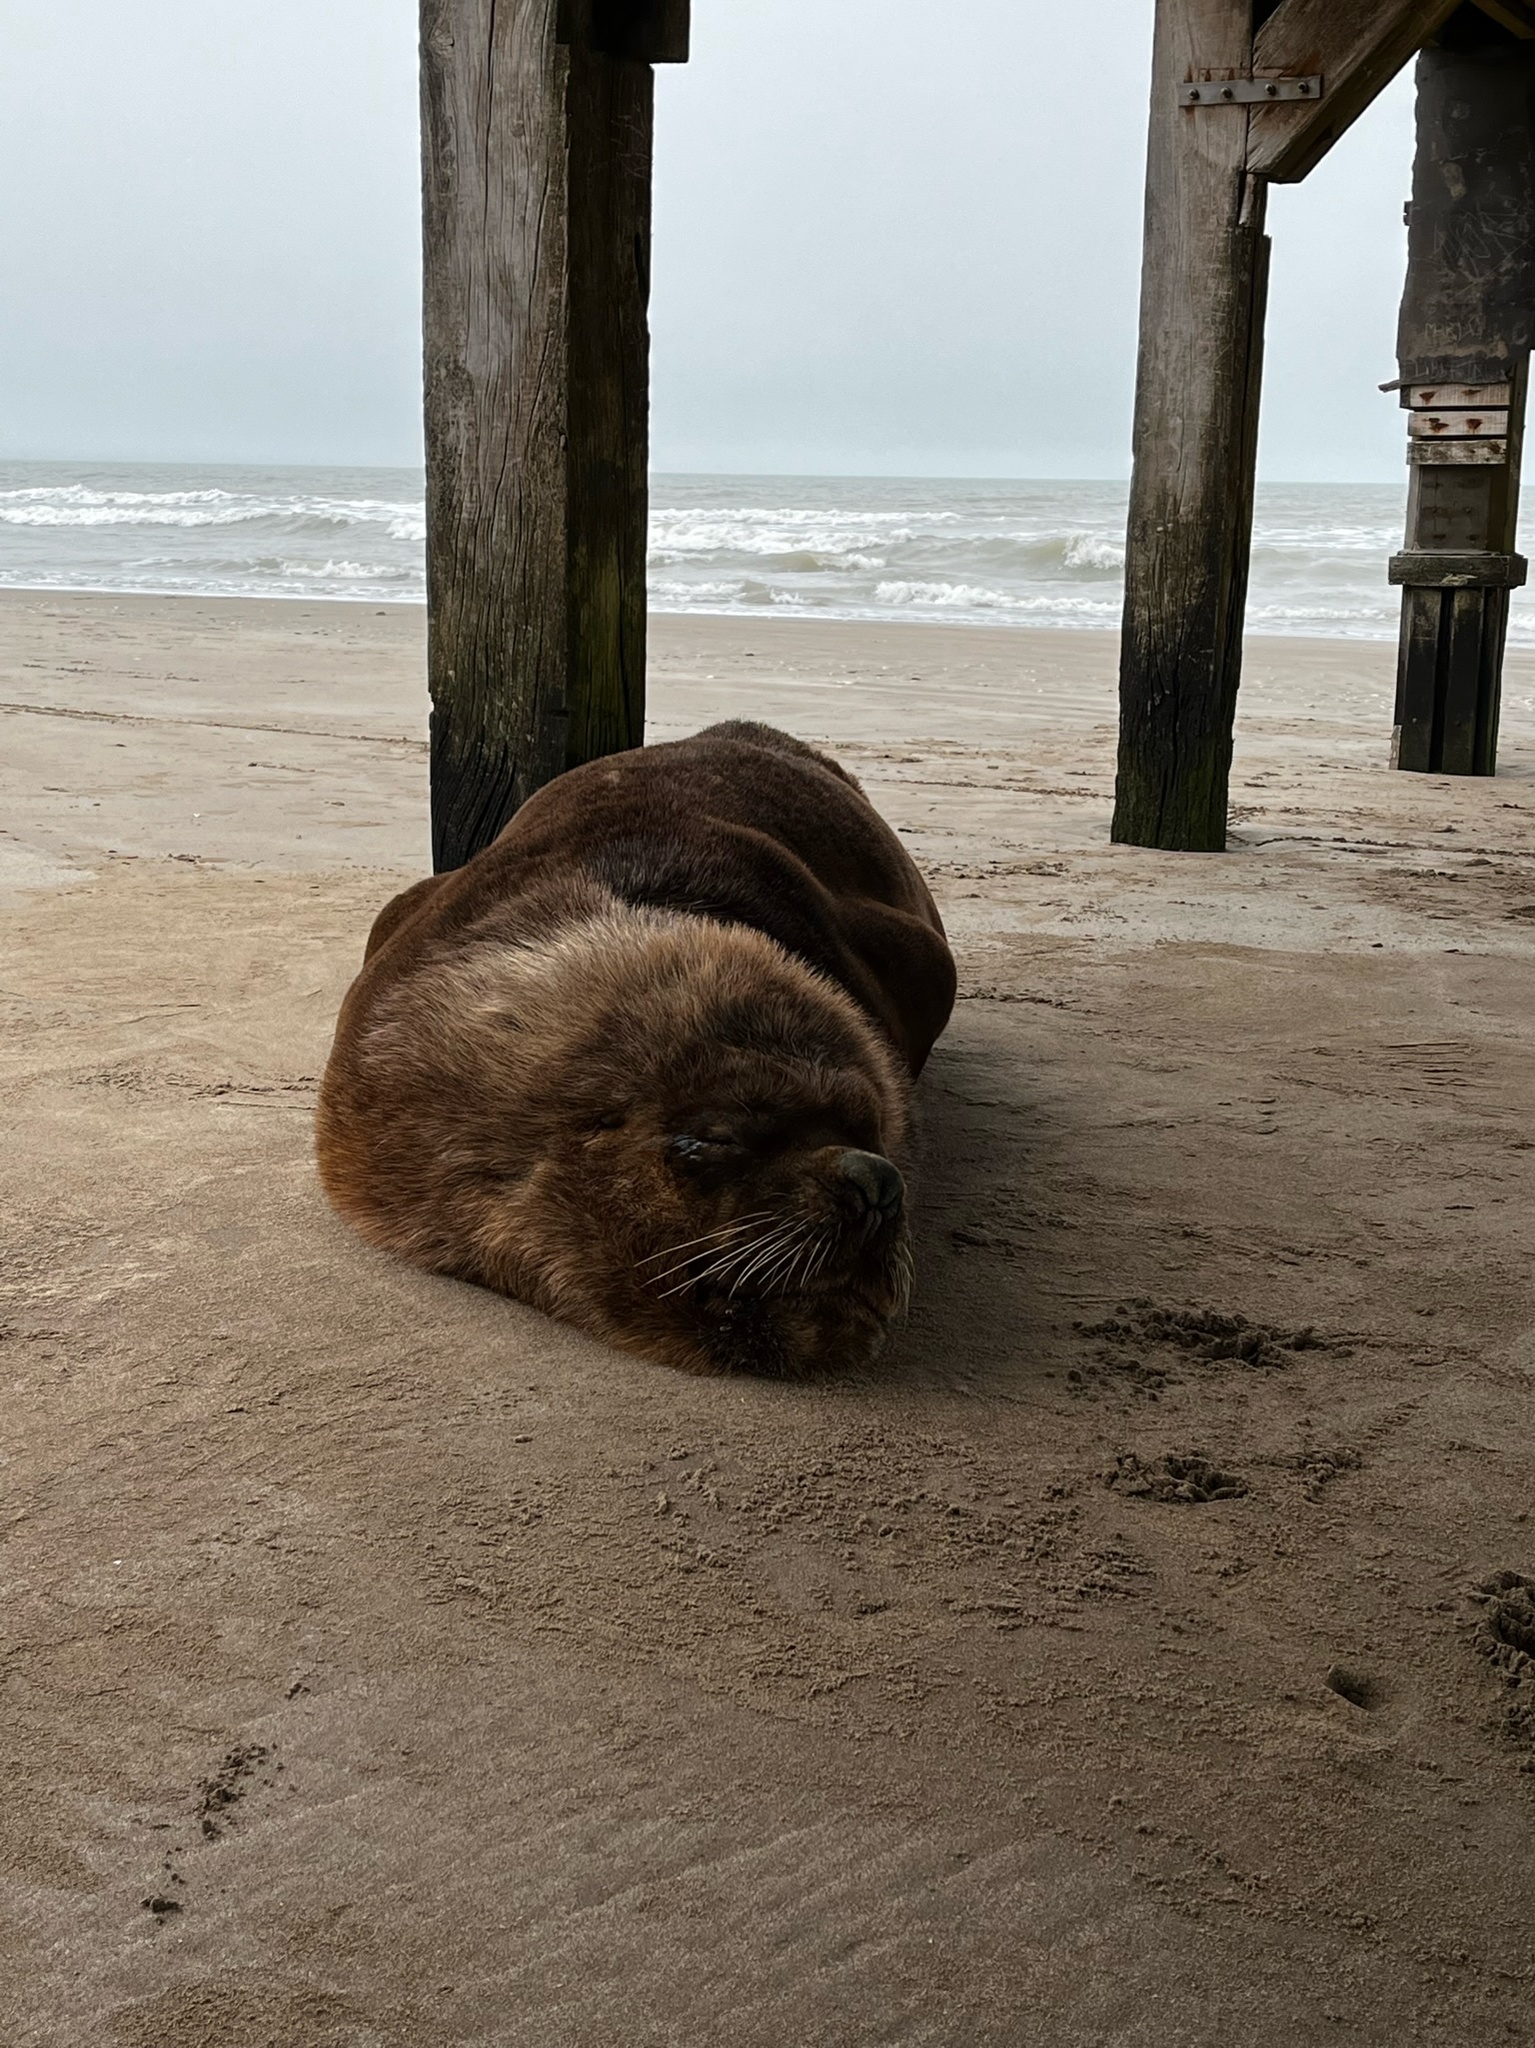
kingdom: Animalia
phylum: Chordata
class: Mammalia
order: Carnivora
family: Otariidae
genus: Otaria
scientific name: Otaria byronia
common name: South american sea lion
